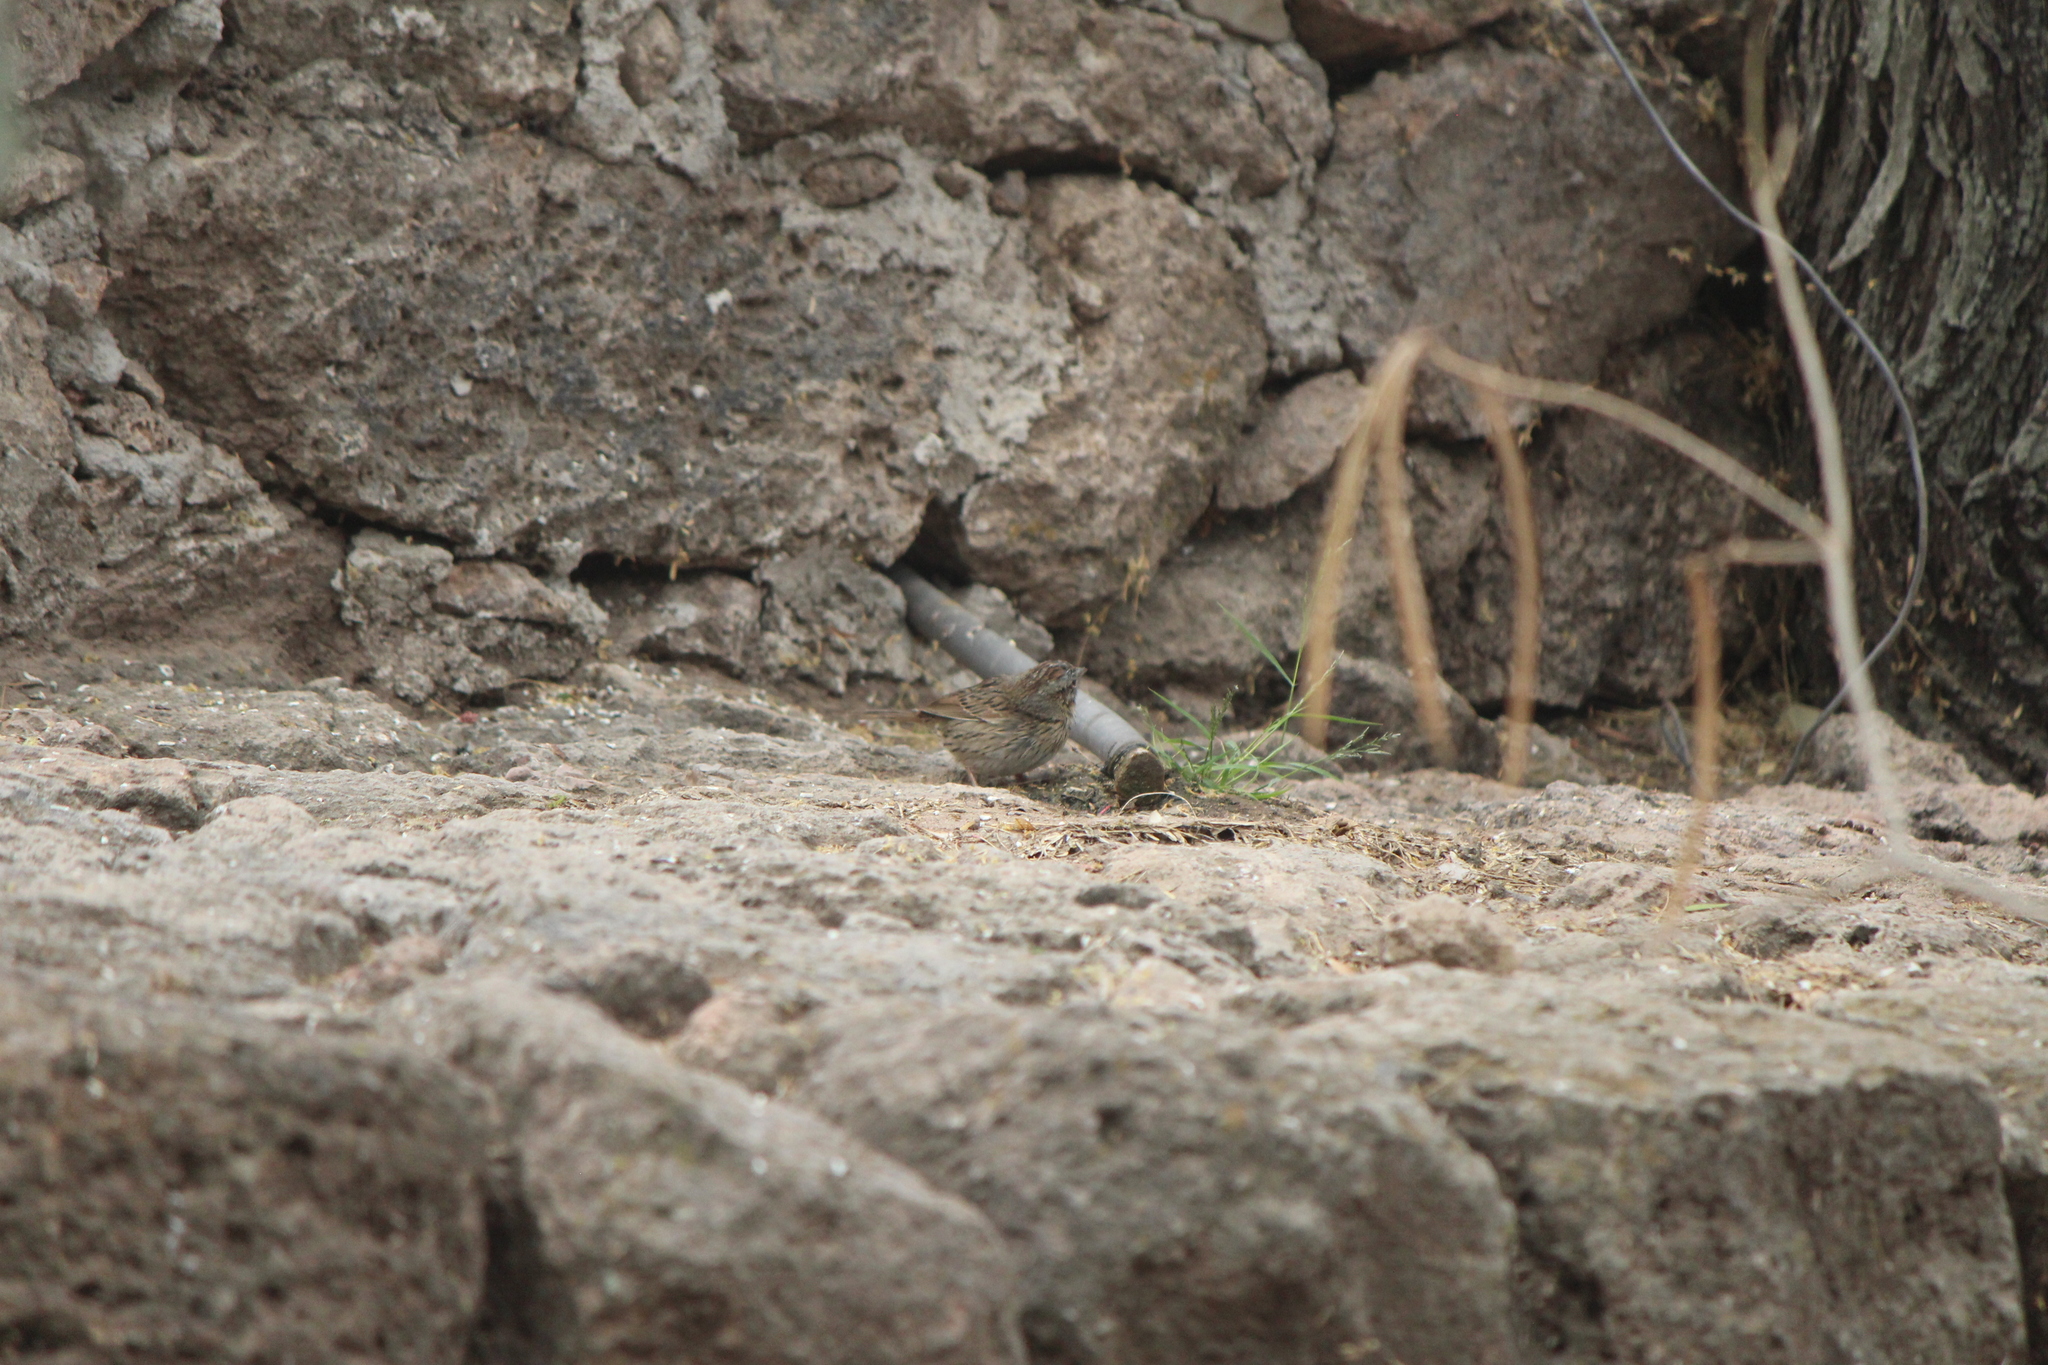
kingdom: Animalia
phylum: Chordata
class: Aves
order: Passeriformes
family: Passerellidae
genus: Melospiza
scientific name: Melospiza lincolnii
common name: Lincoln's sparrow
